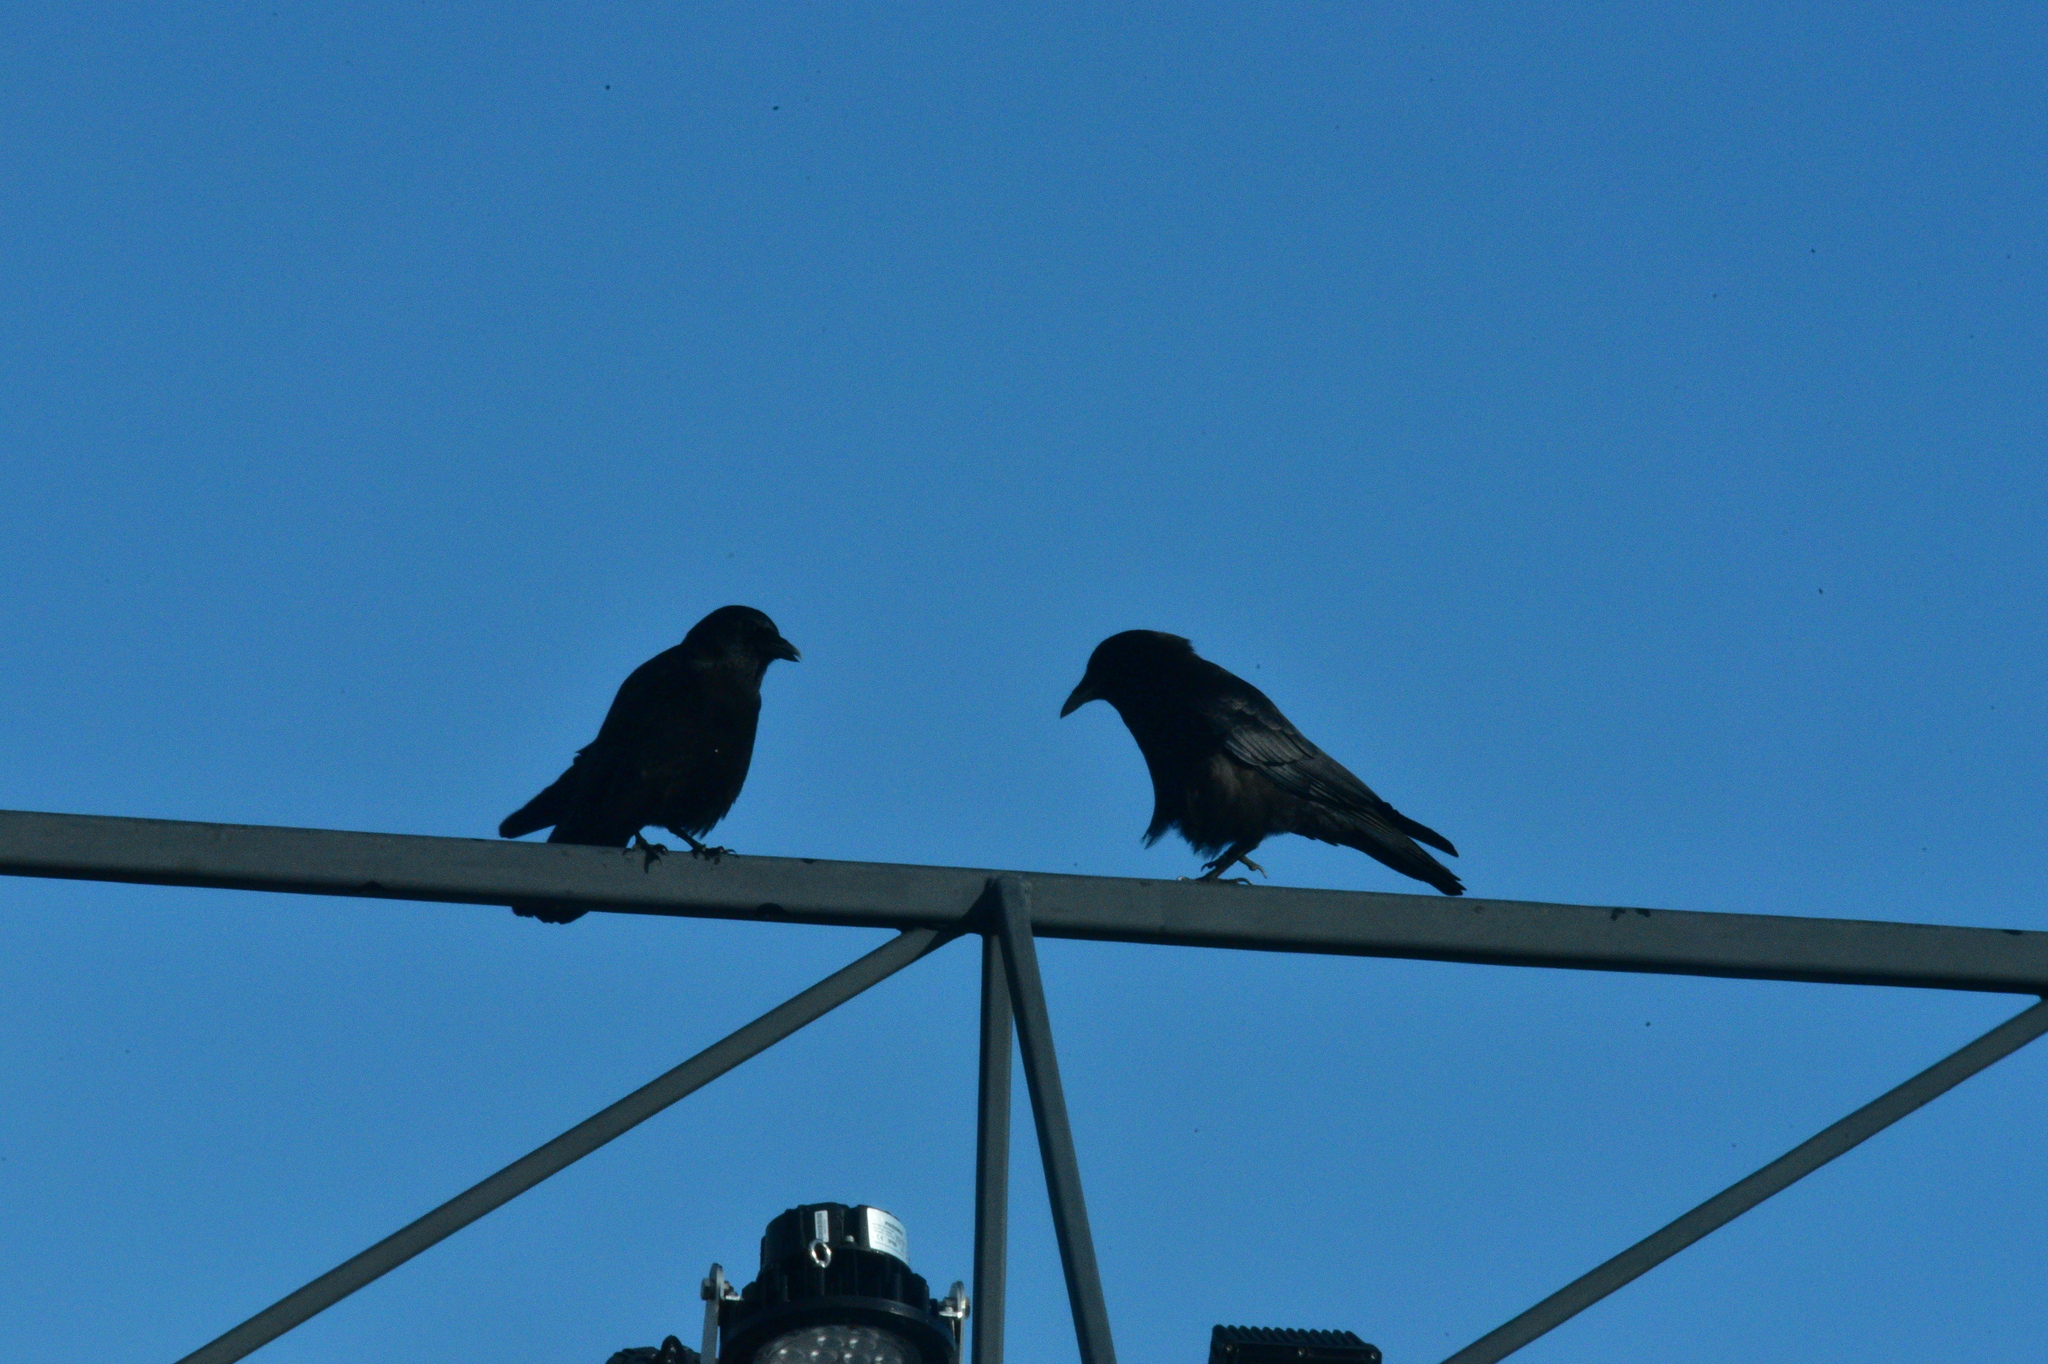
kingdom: Animalia
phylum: Chordata
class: Aves
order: Passeriformes
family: Corvidae
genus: Corvus
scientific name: Corvus brachyrhynchos
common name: American crow
